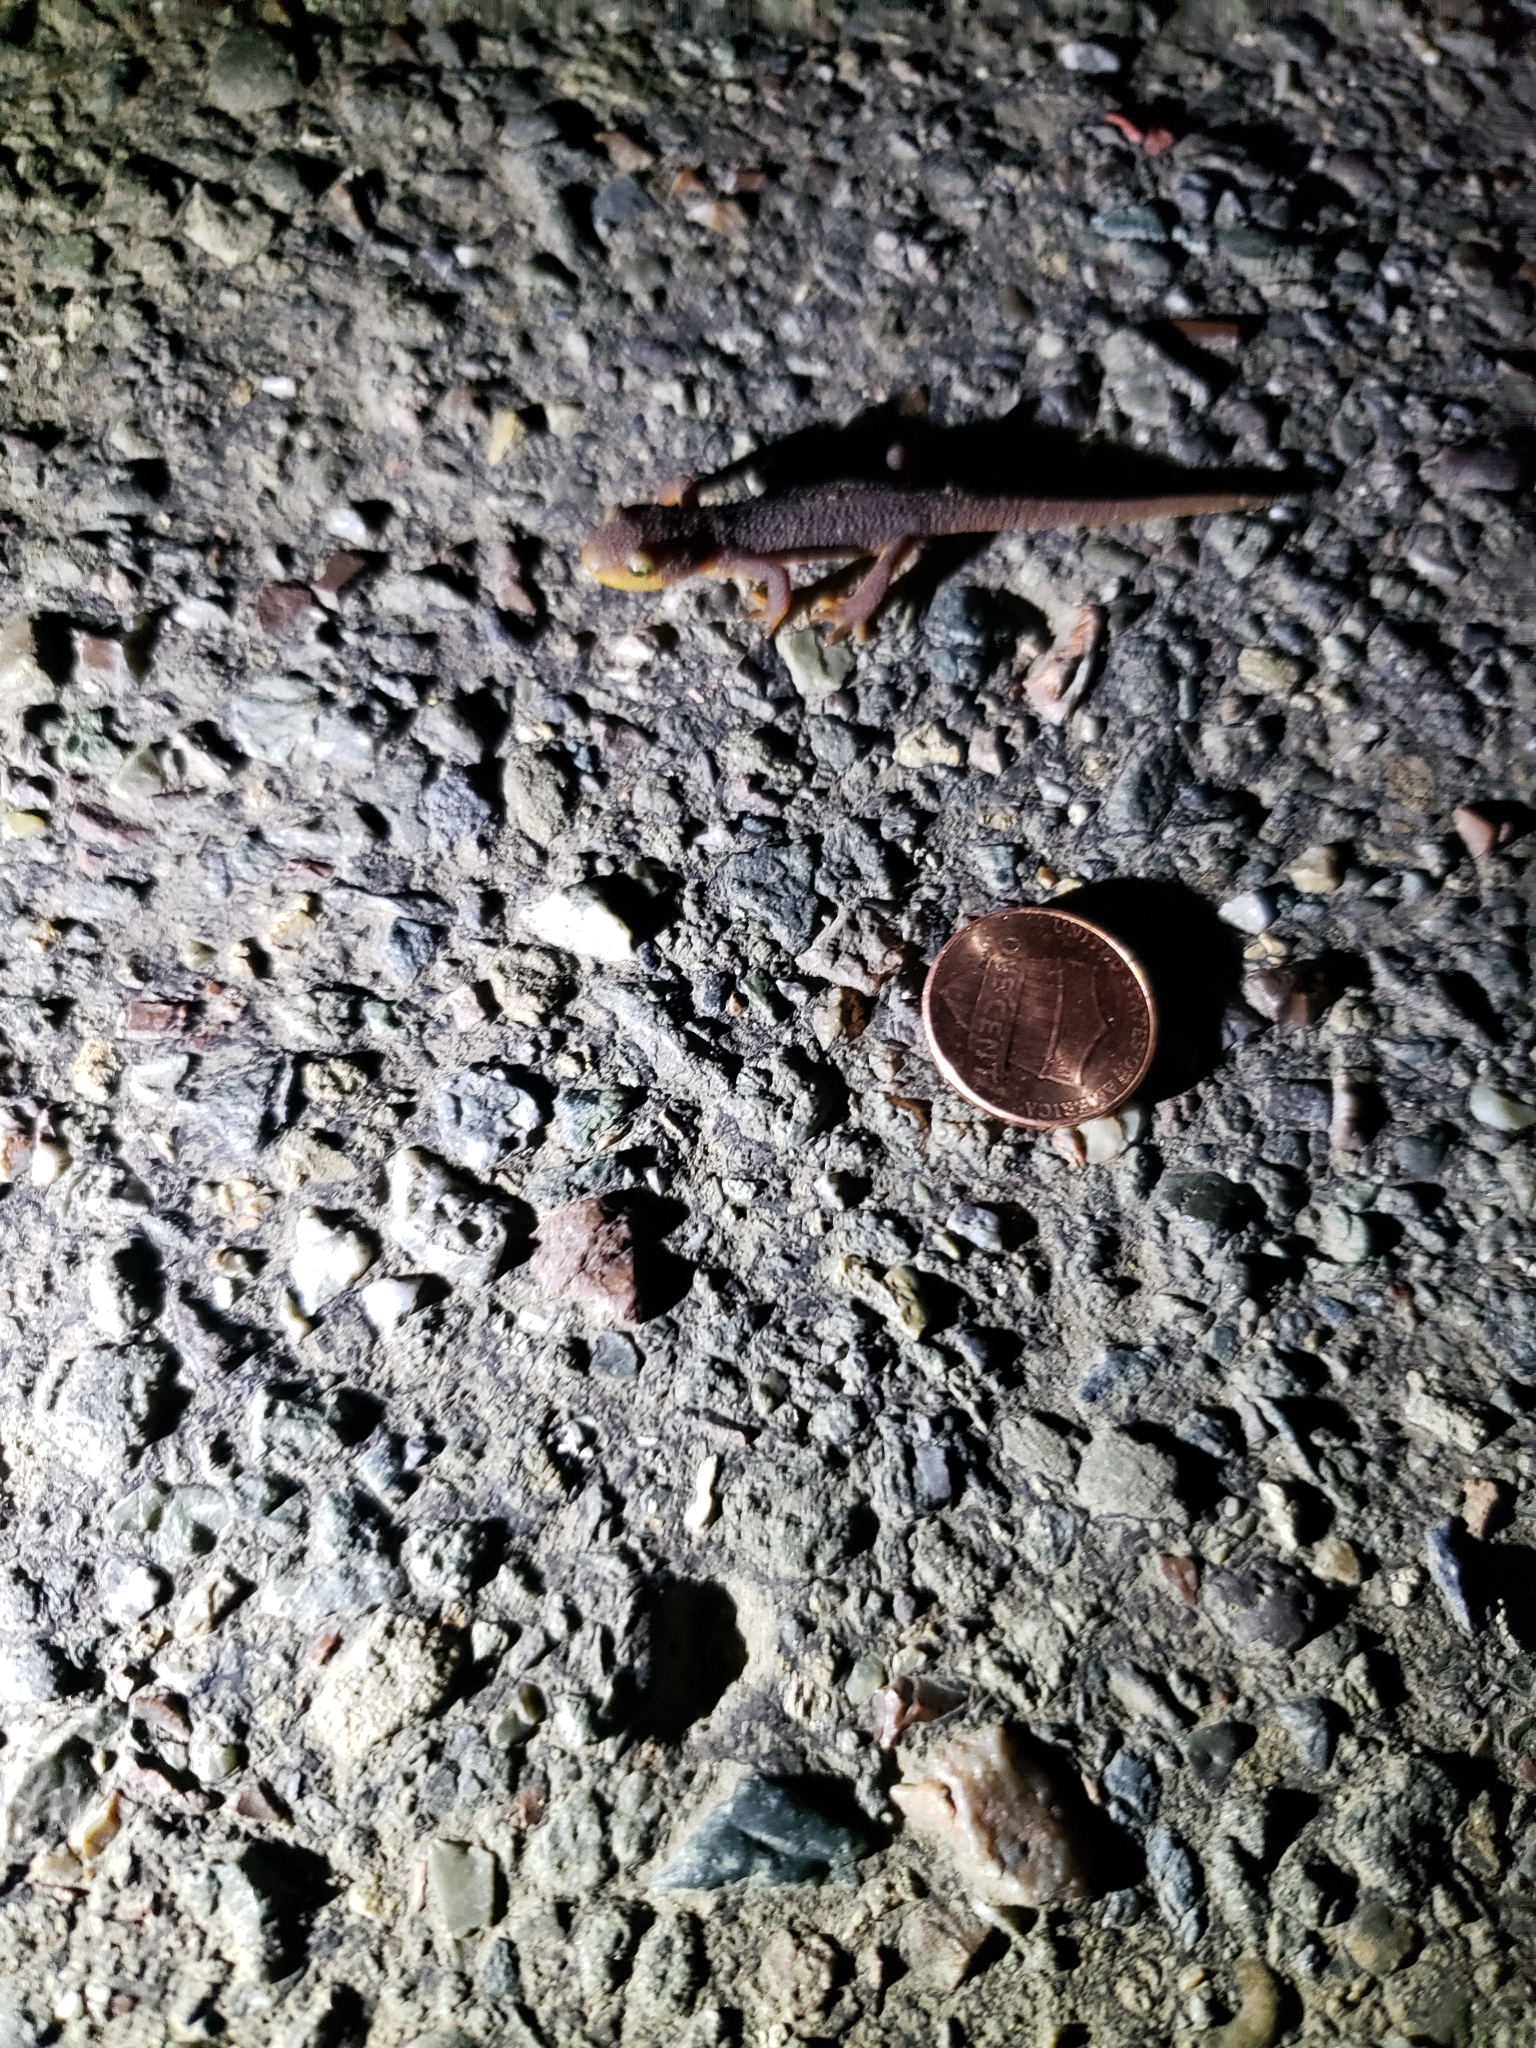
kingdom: Animalia
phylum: Chordata
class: Amphibia
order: Caudata
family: Salamandridae
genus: Taricha
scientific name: Taricha torosa
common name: California newt
